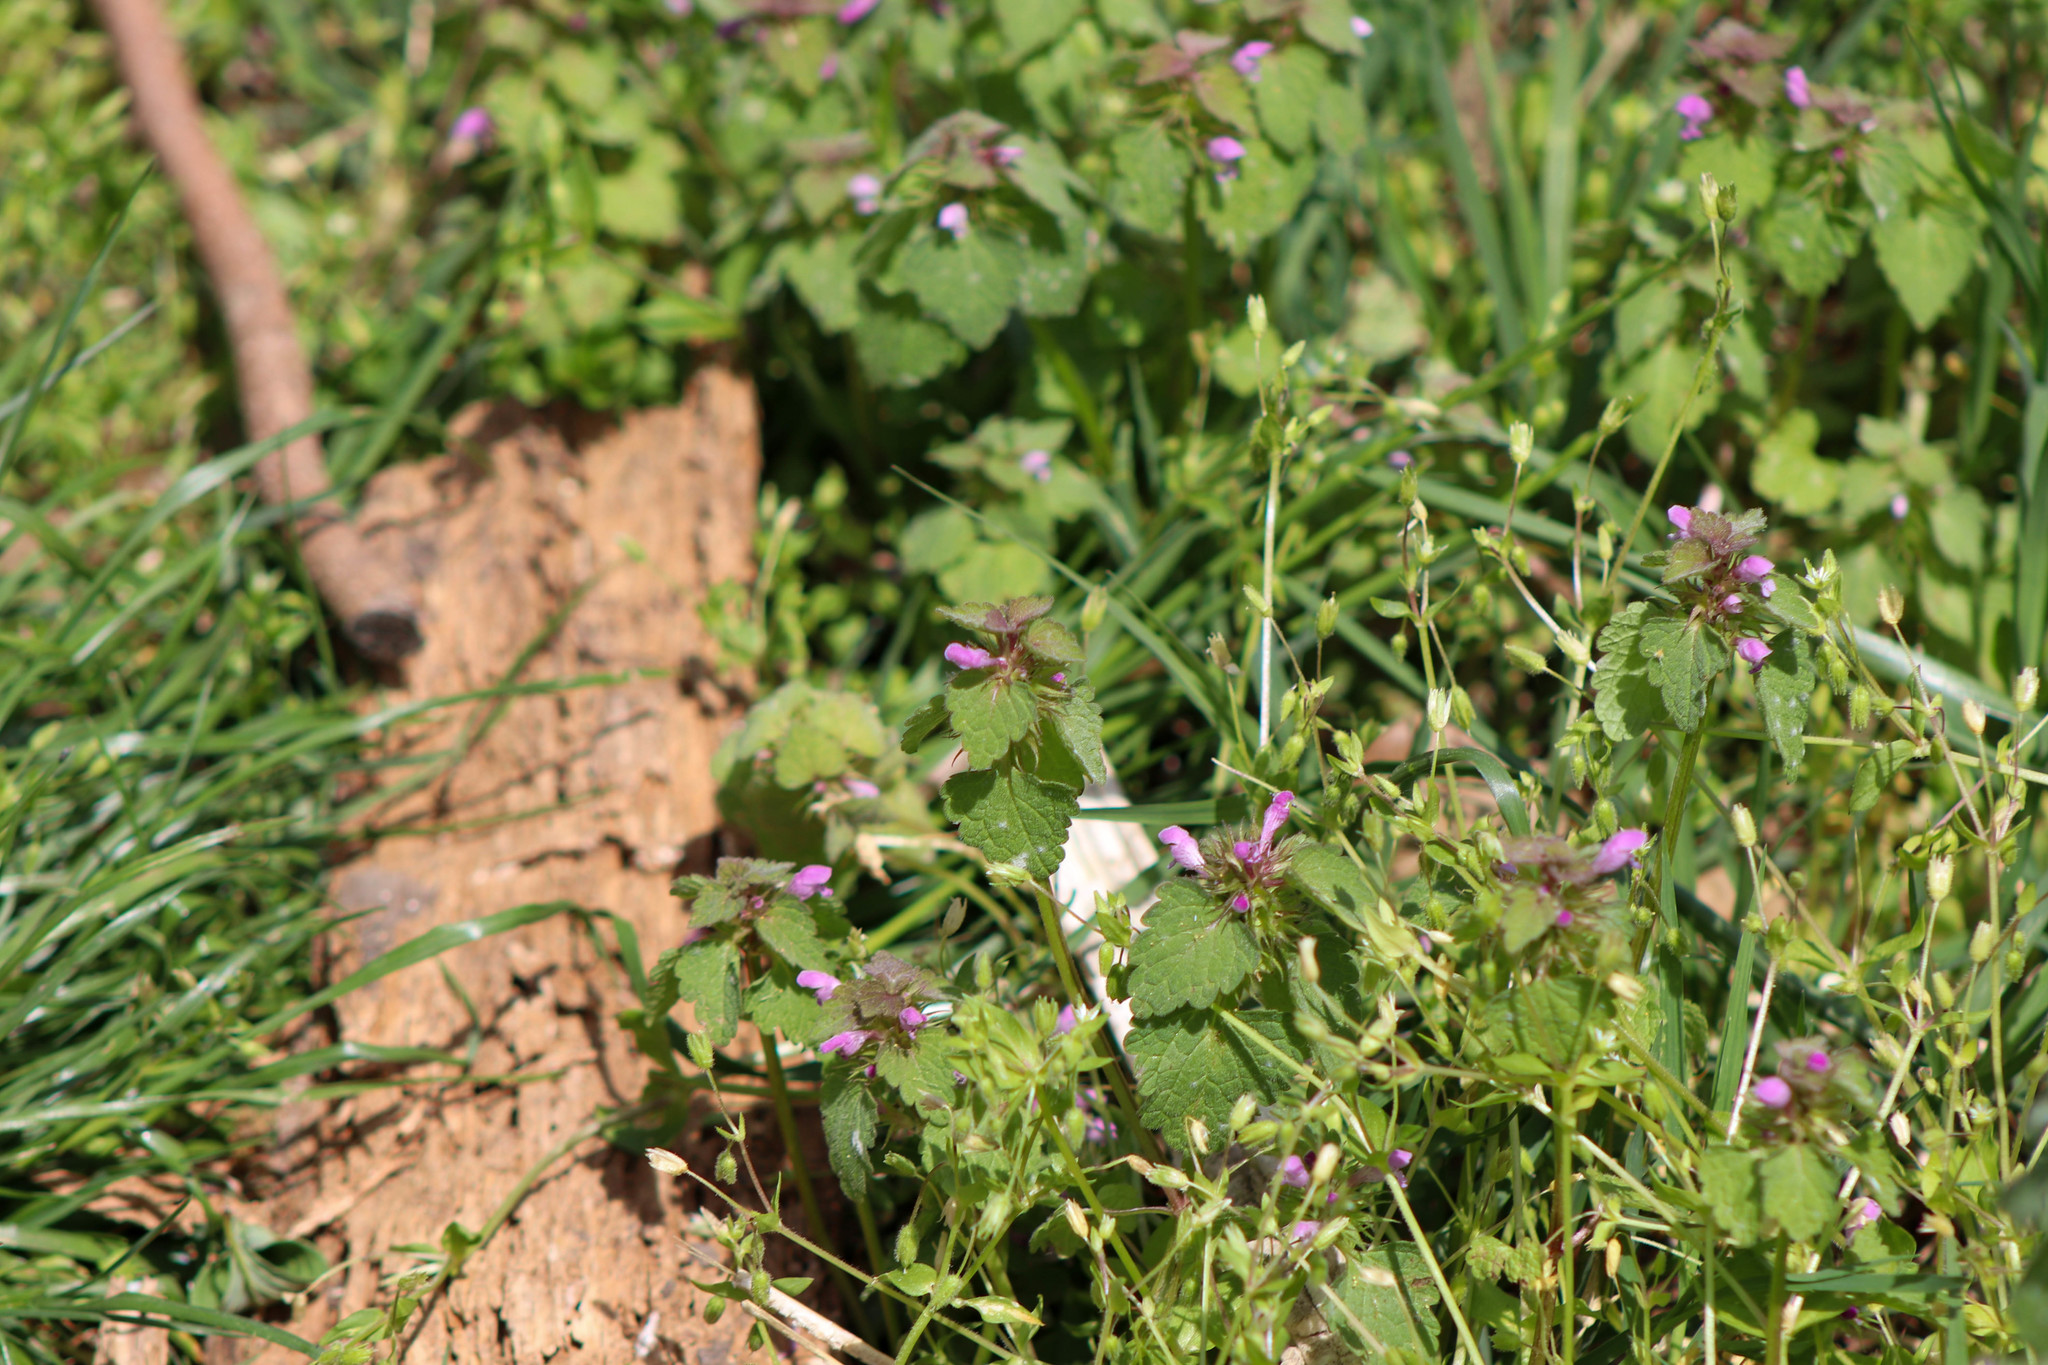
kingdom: Plantae
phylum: Tracheophyta
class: Magnoliopsida
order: Lamiales
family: Lamiaceae
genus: Lamium
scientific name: Lamium purpureum
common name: Red dead-nettle
